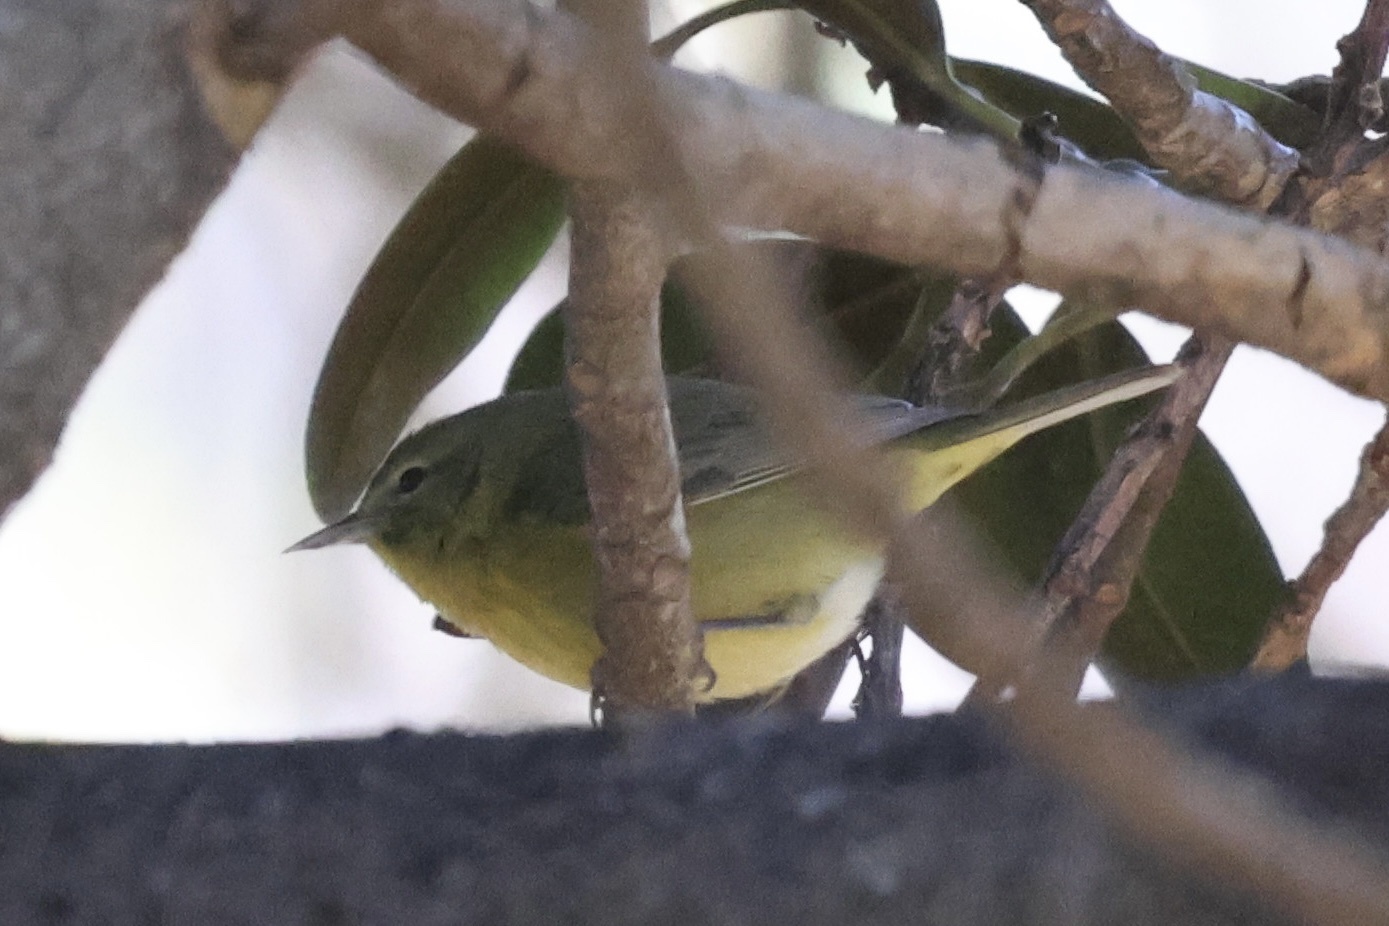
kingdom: Animalia
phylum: Chordata
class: Aves
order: Passeriformes
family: Parulidae
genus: Leiothlypis
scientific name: Leiothlypis celata
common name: Orange-crowned warbler
